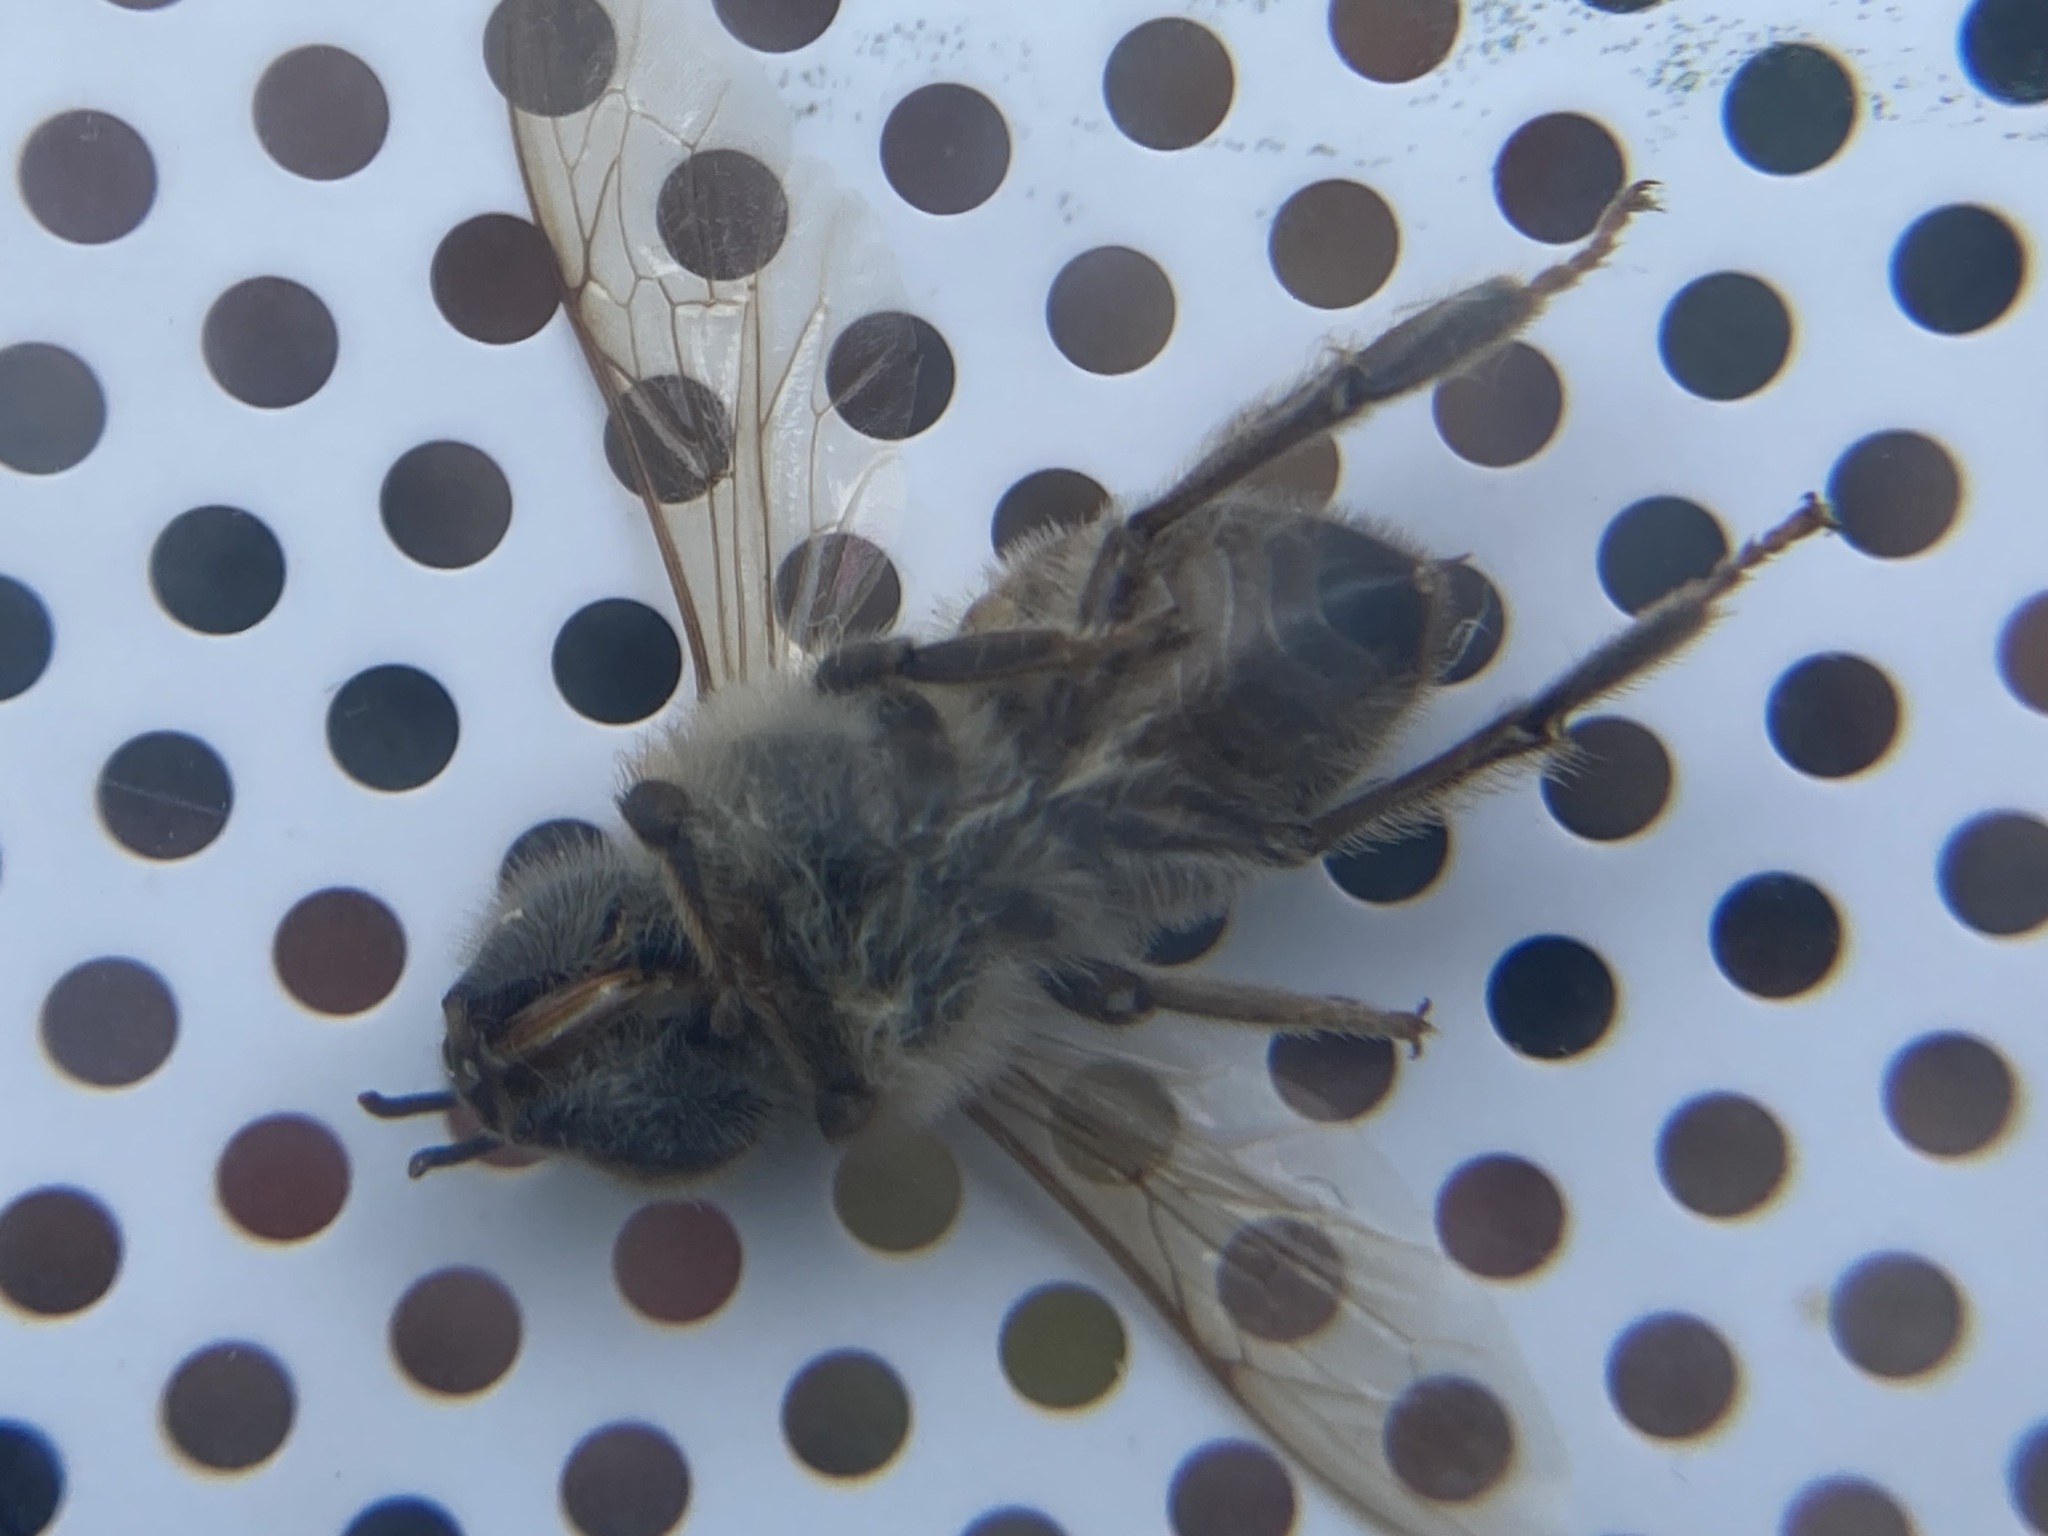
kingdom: Animalia
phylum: Arthropoda
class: Insecta
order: Hymenoptera
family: Apidae
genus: Apis
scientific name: Apis mellifera
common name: Honey bee
